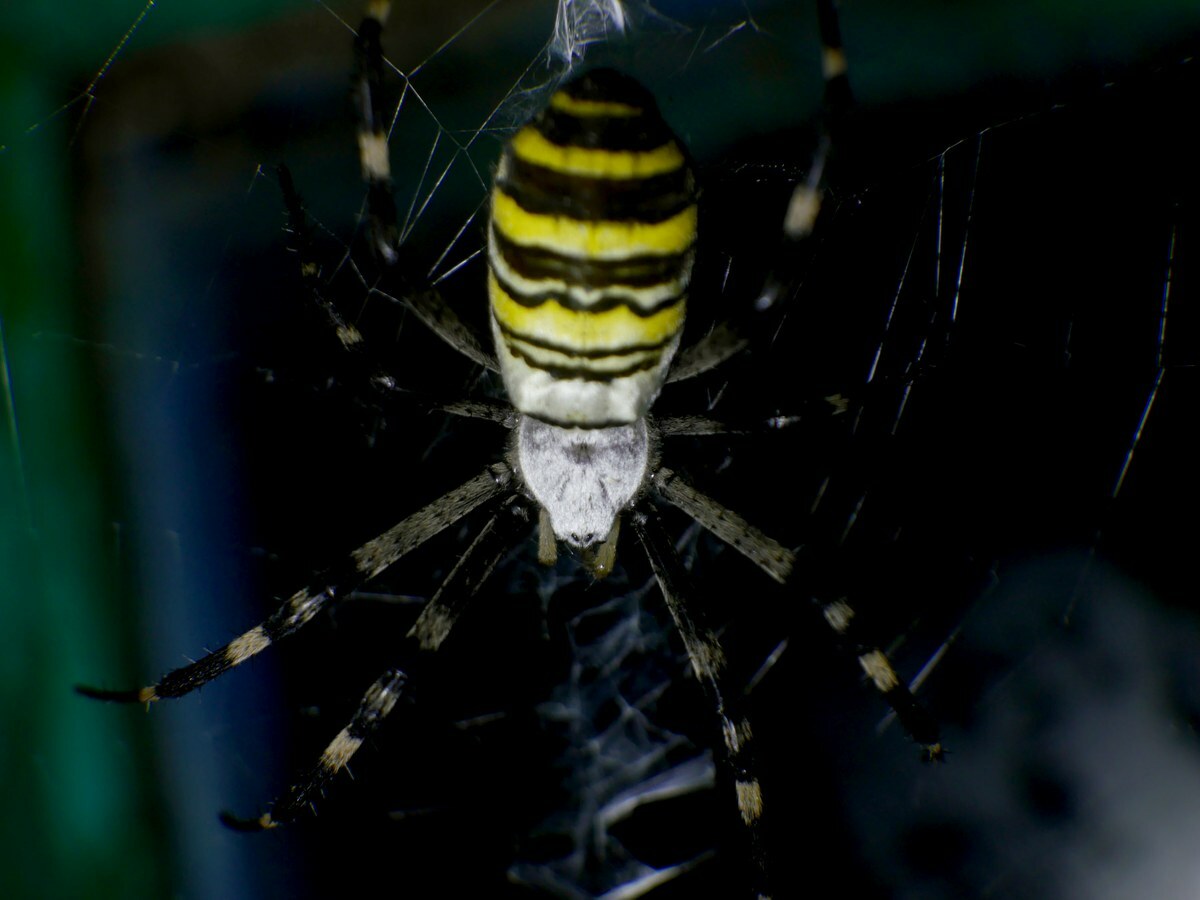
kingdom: Animalia
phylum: Arthropoda
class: Arachnida
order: Araneae
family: Araneidae
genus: Argiope
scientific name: Argiope bruennichi
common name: Wasp spider
